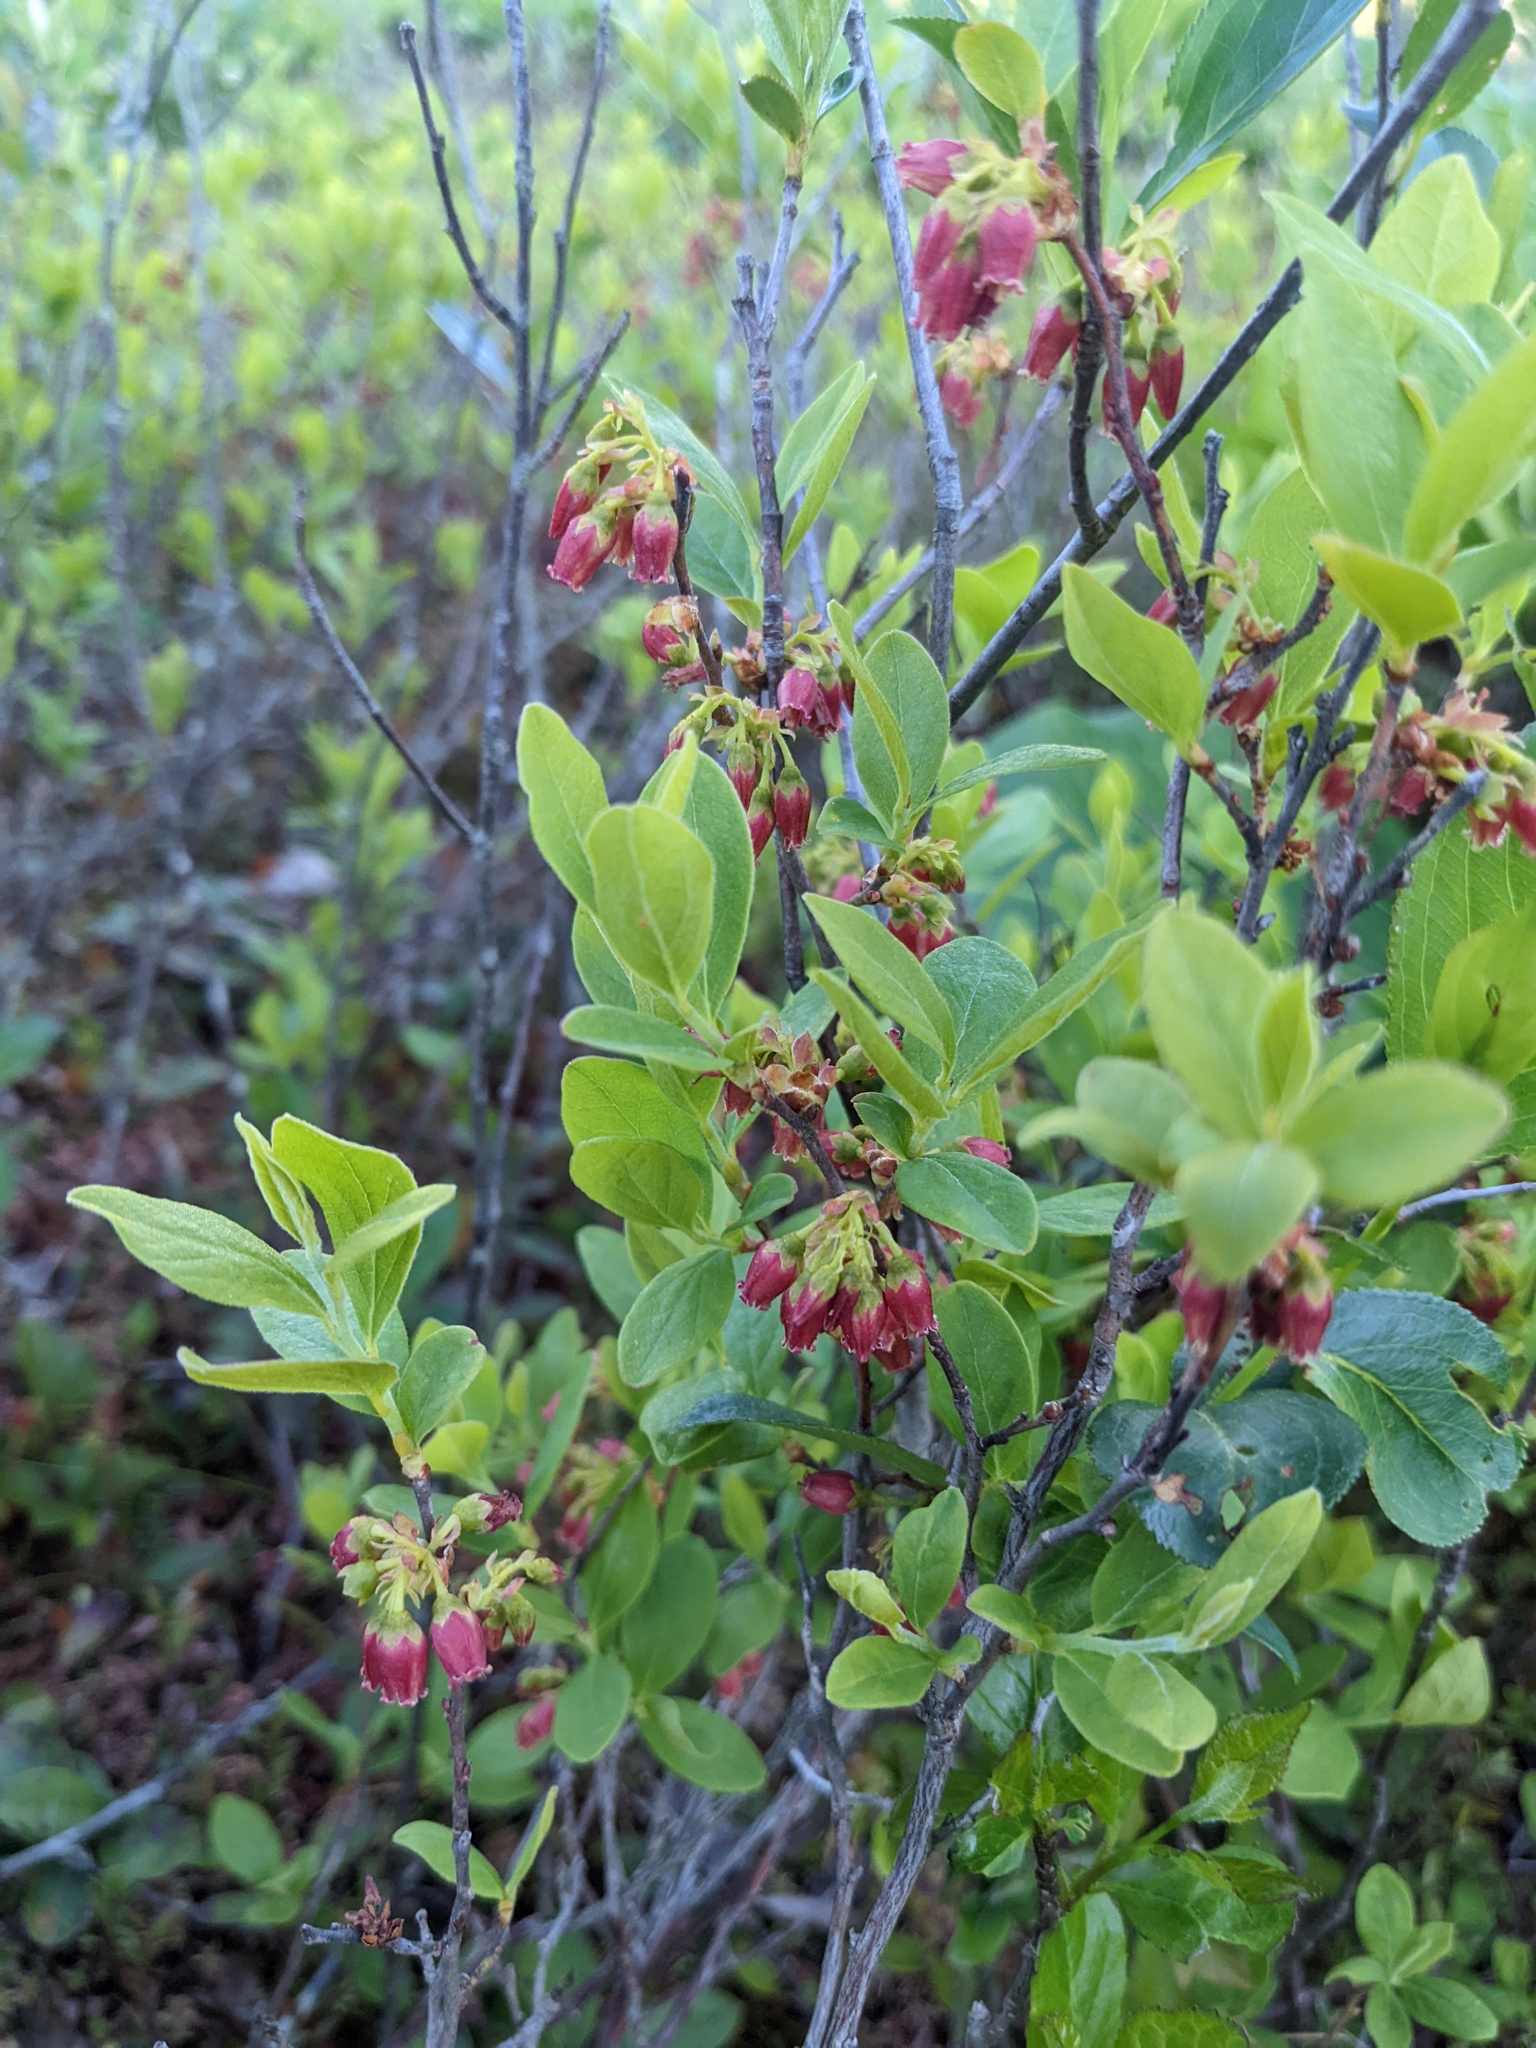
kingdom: Plantae
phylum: Tracheophyta
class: Magnoliopsida
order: Ericales
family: Ericaceae
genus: Gaylussacia
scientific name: Gaylussacia baccata
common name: Black huckleberry
